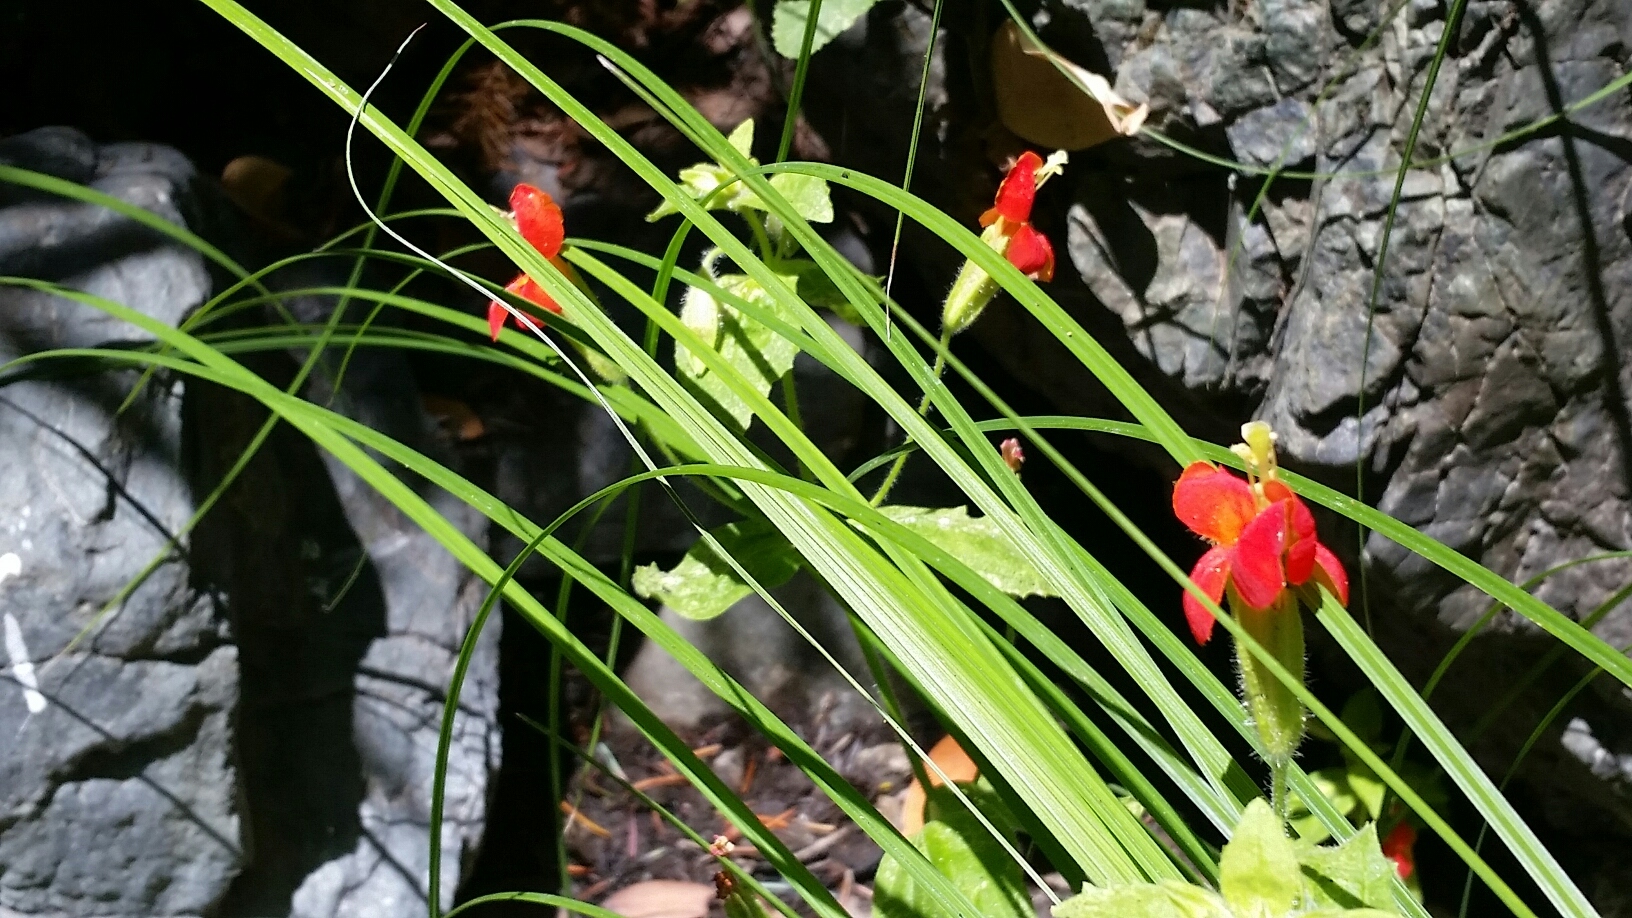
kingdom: Plantae
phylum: Tracheophyta
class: Magnoliopsida
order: Lamiales
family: Phrymaceae
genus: Erythranthe
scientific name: Erythranthe cardinalis
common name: Scarlet monkey-flower
